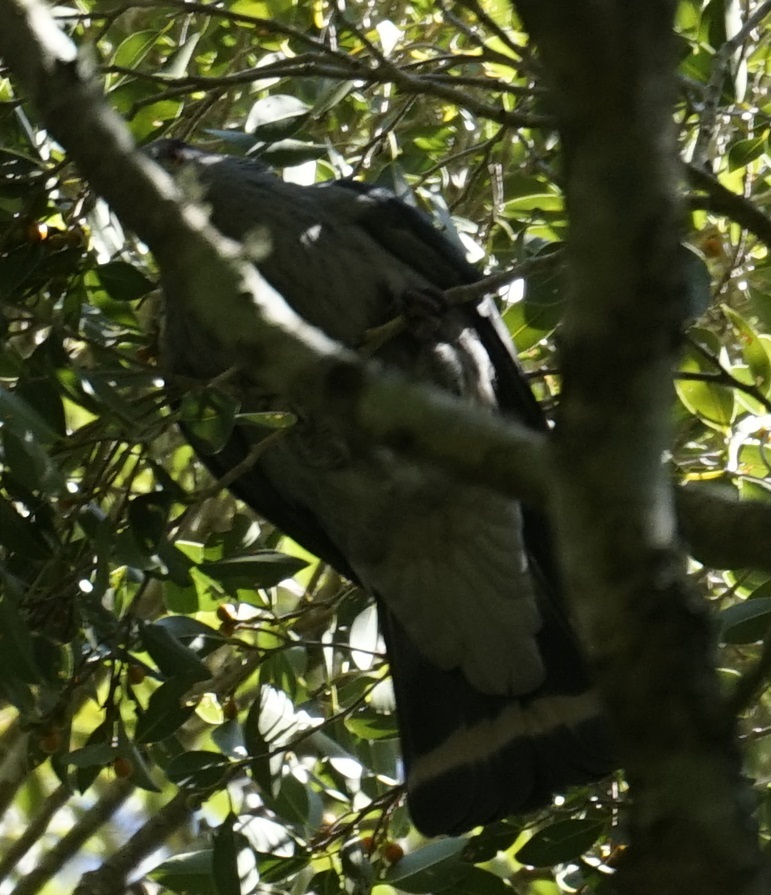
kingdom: Animalia
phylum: Chordata
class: Aves
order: Columbiformes
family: Columbidae
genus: Lopholaimus
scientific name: Lopholaimus antarcticus
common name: Topknot pigeon
